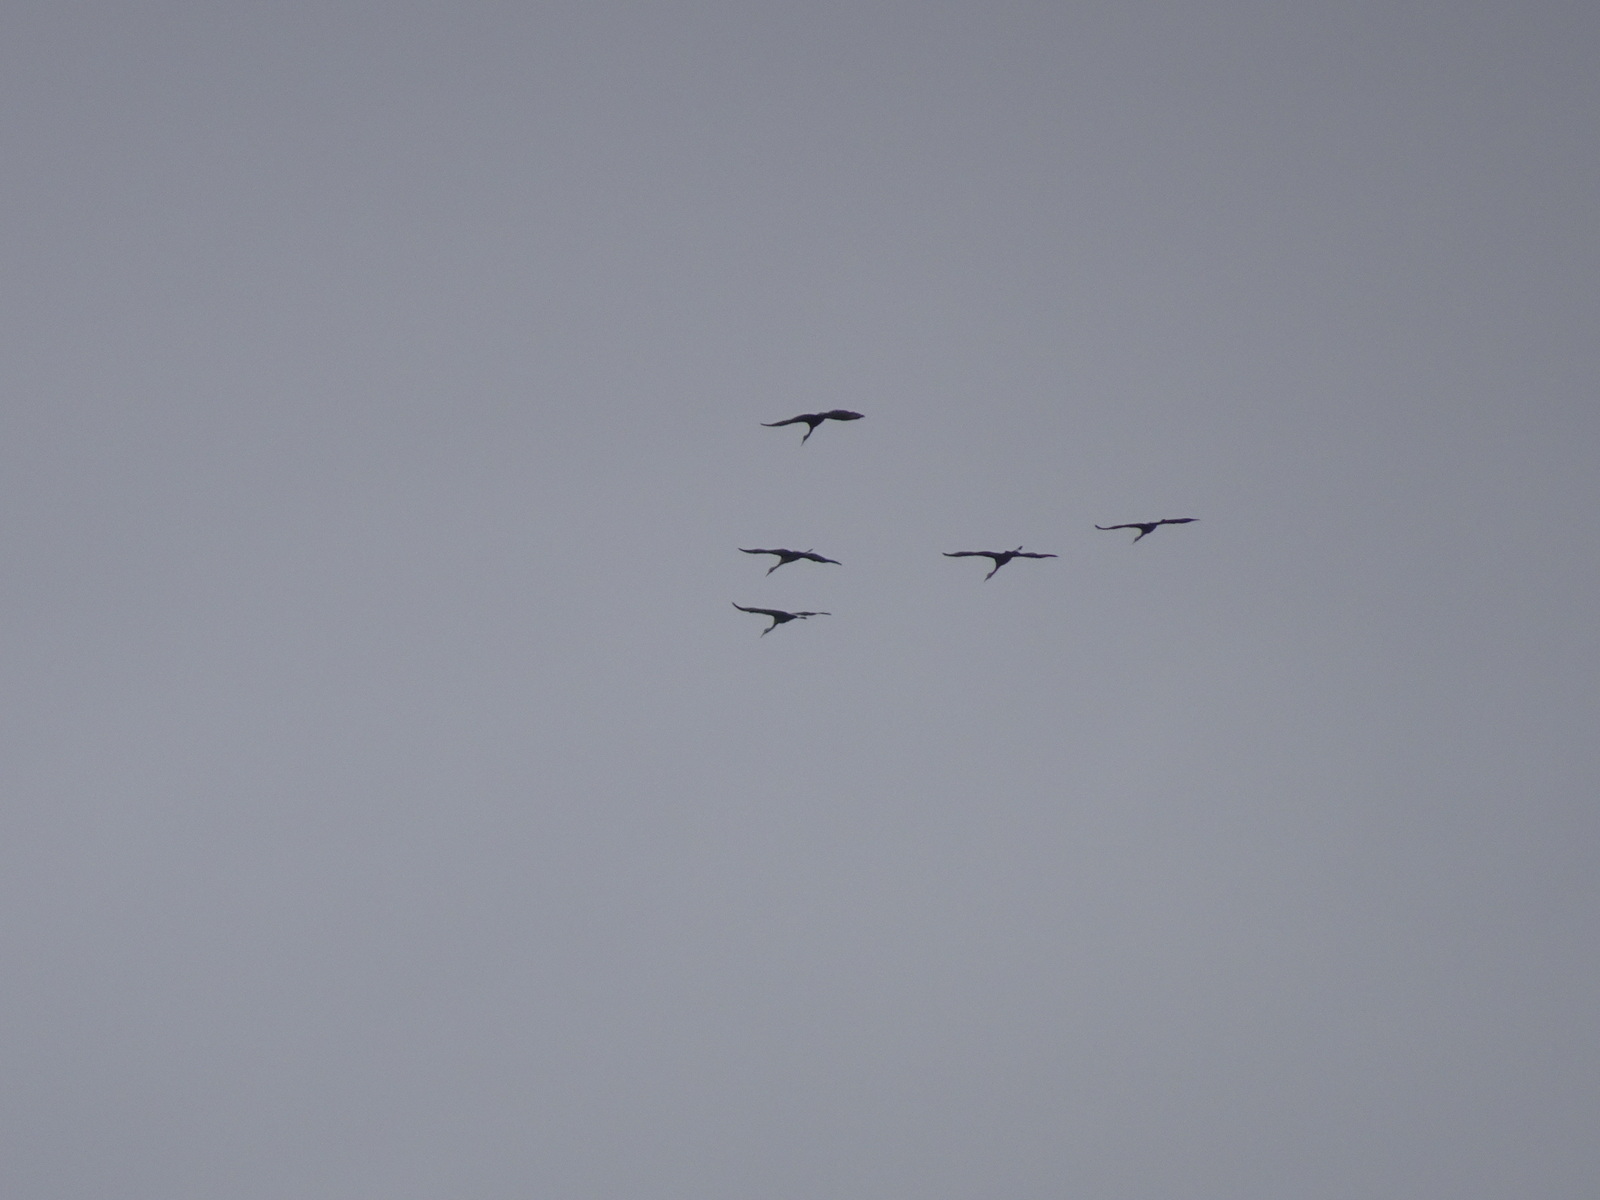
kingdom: Animalia
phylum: Chordata
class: Aves
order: Gruiformes
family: Gruidae
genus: Grus
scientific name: Grus canadensis
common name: Sandhill crane
